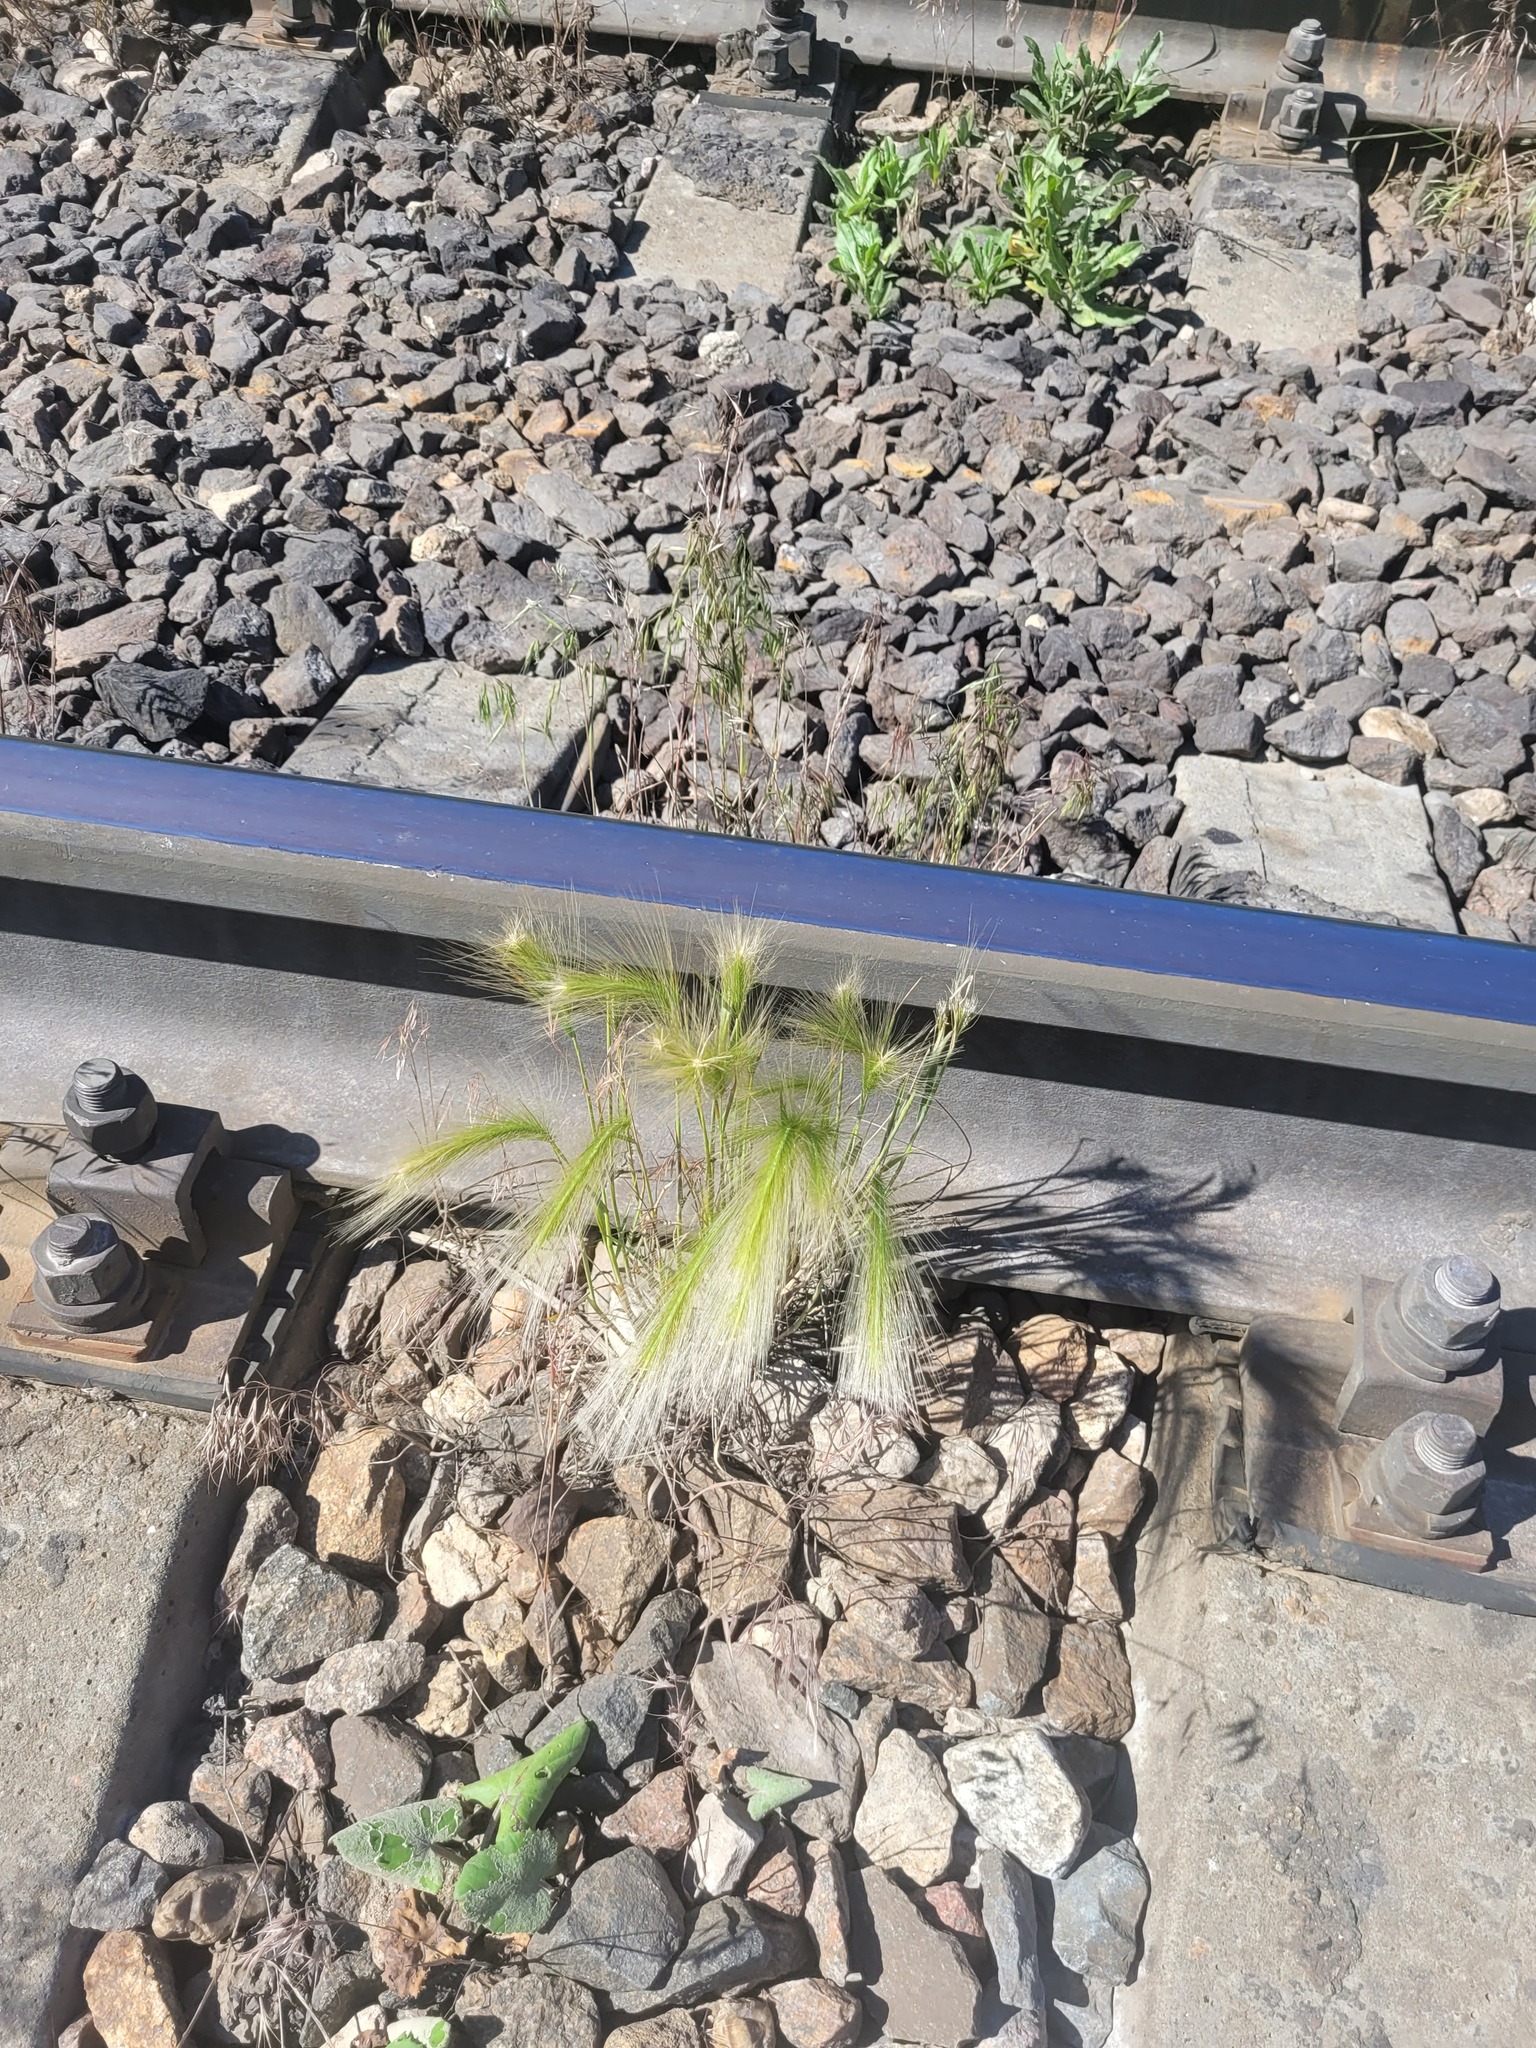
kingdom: Plantae
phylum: Tracheophyta
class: Liliopsida
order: Poales
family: Poaceae
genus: Hordeum
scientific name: Hordeum jubatum
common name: Foxtail barley
